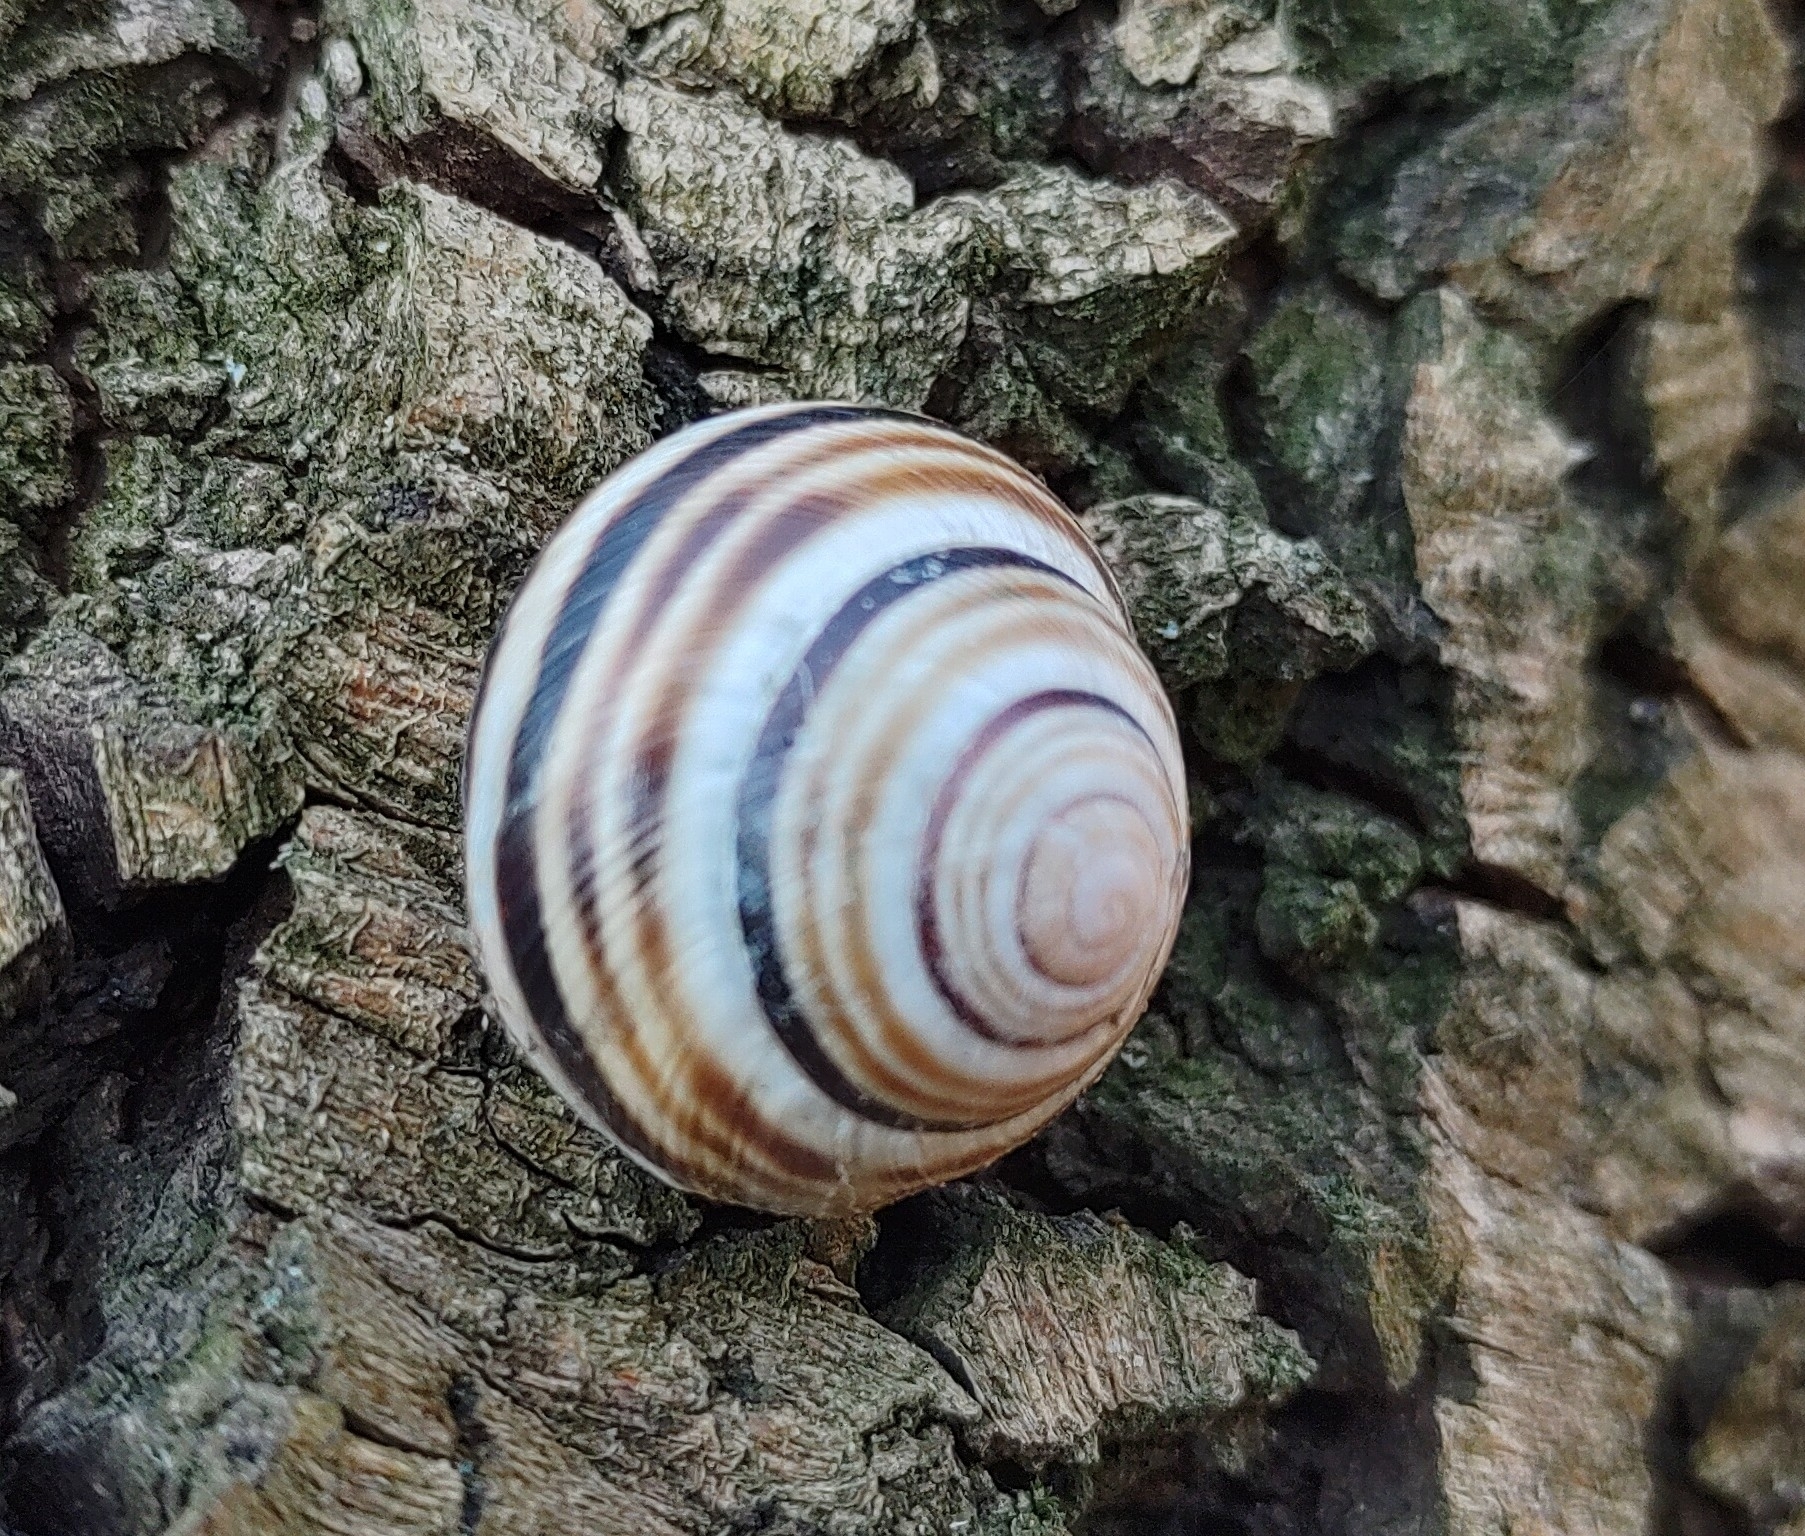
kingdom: Animalia
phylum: Mollusca
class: Gastropoda
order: Stylommatophora
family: Helicidae
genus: Caucasotachea
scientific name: Caucasotachea vindobonensis
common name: European helicid land snail
